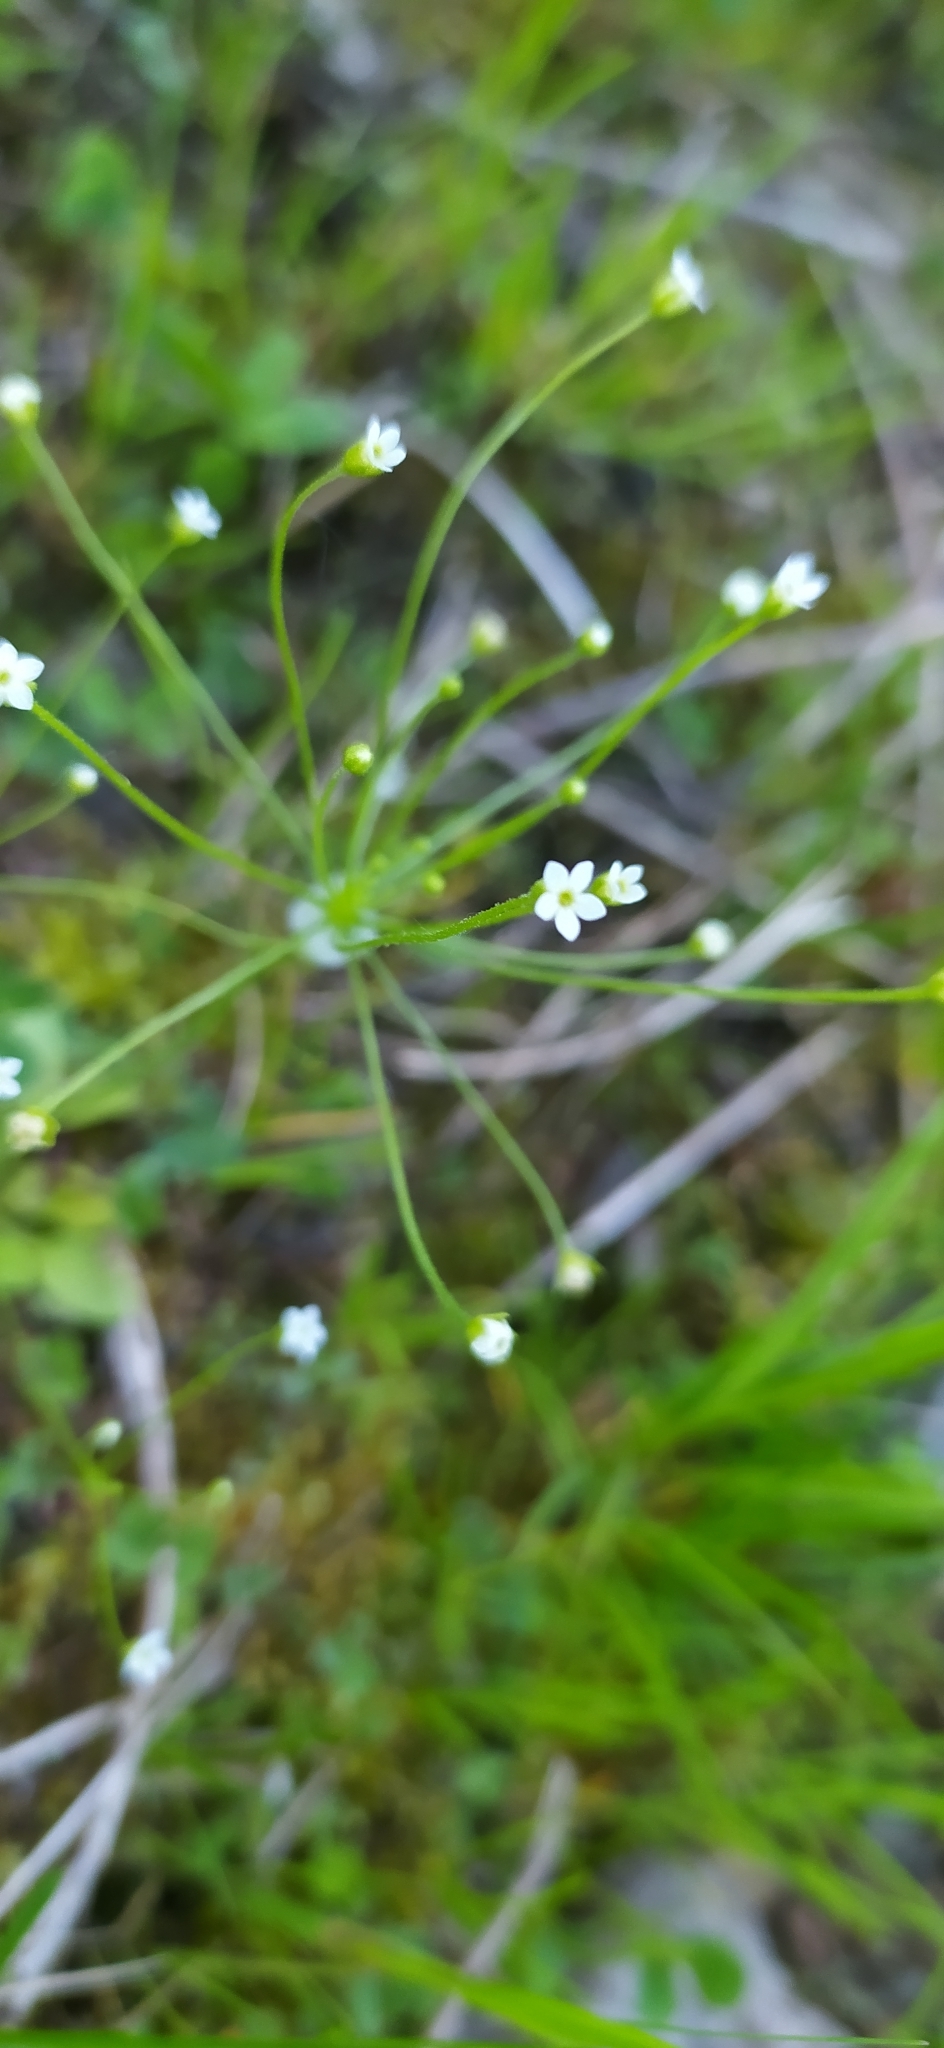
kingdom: Plantae
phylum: Tracheophyta
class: Magnoliopsida
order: Ericales
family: Primulaceae
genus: Androsace
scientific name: Androsace filiformis
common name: Filiform rock jasmine
